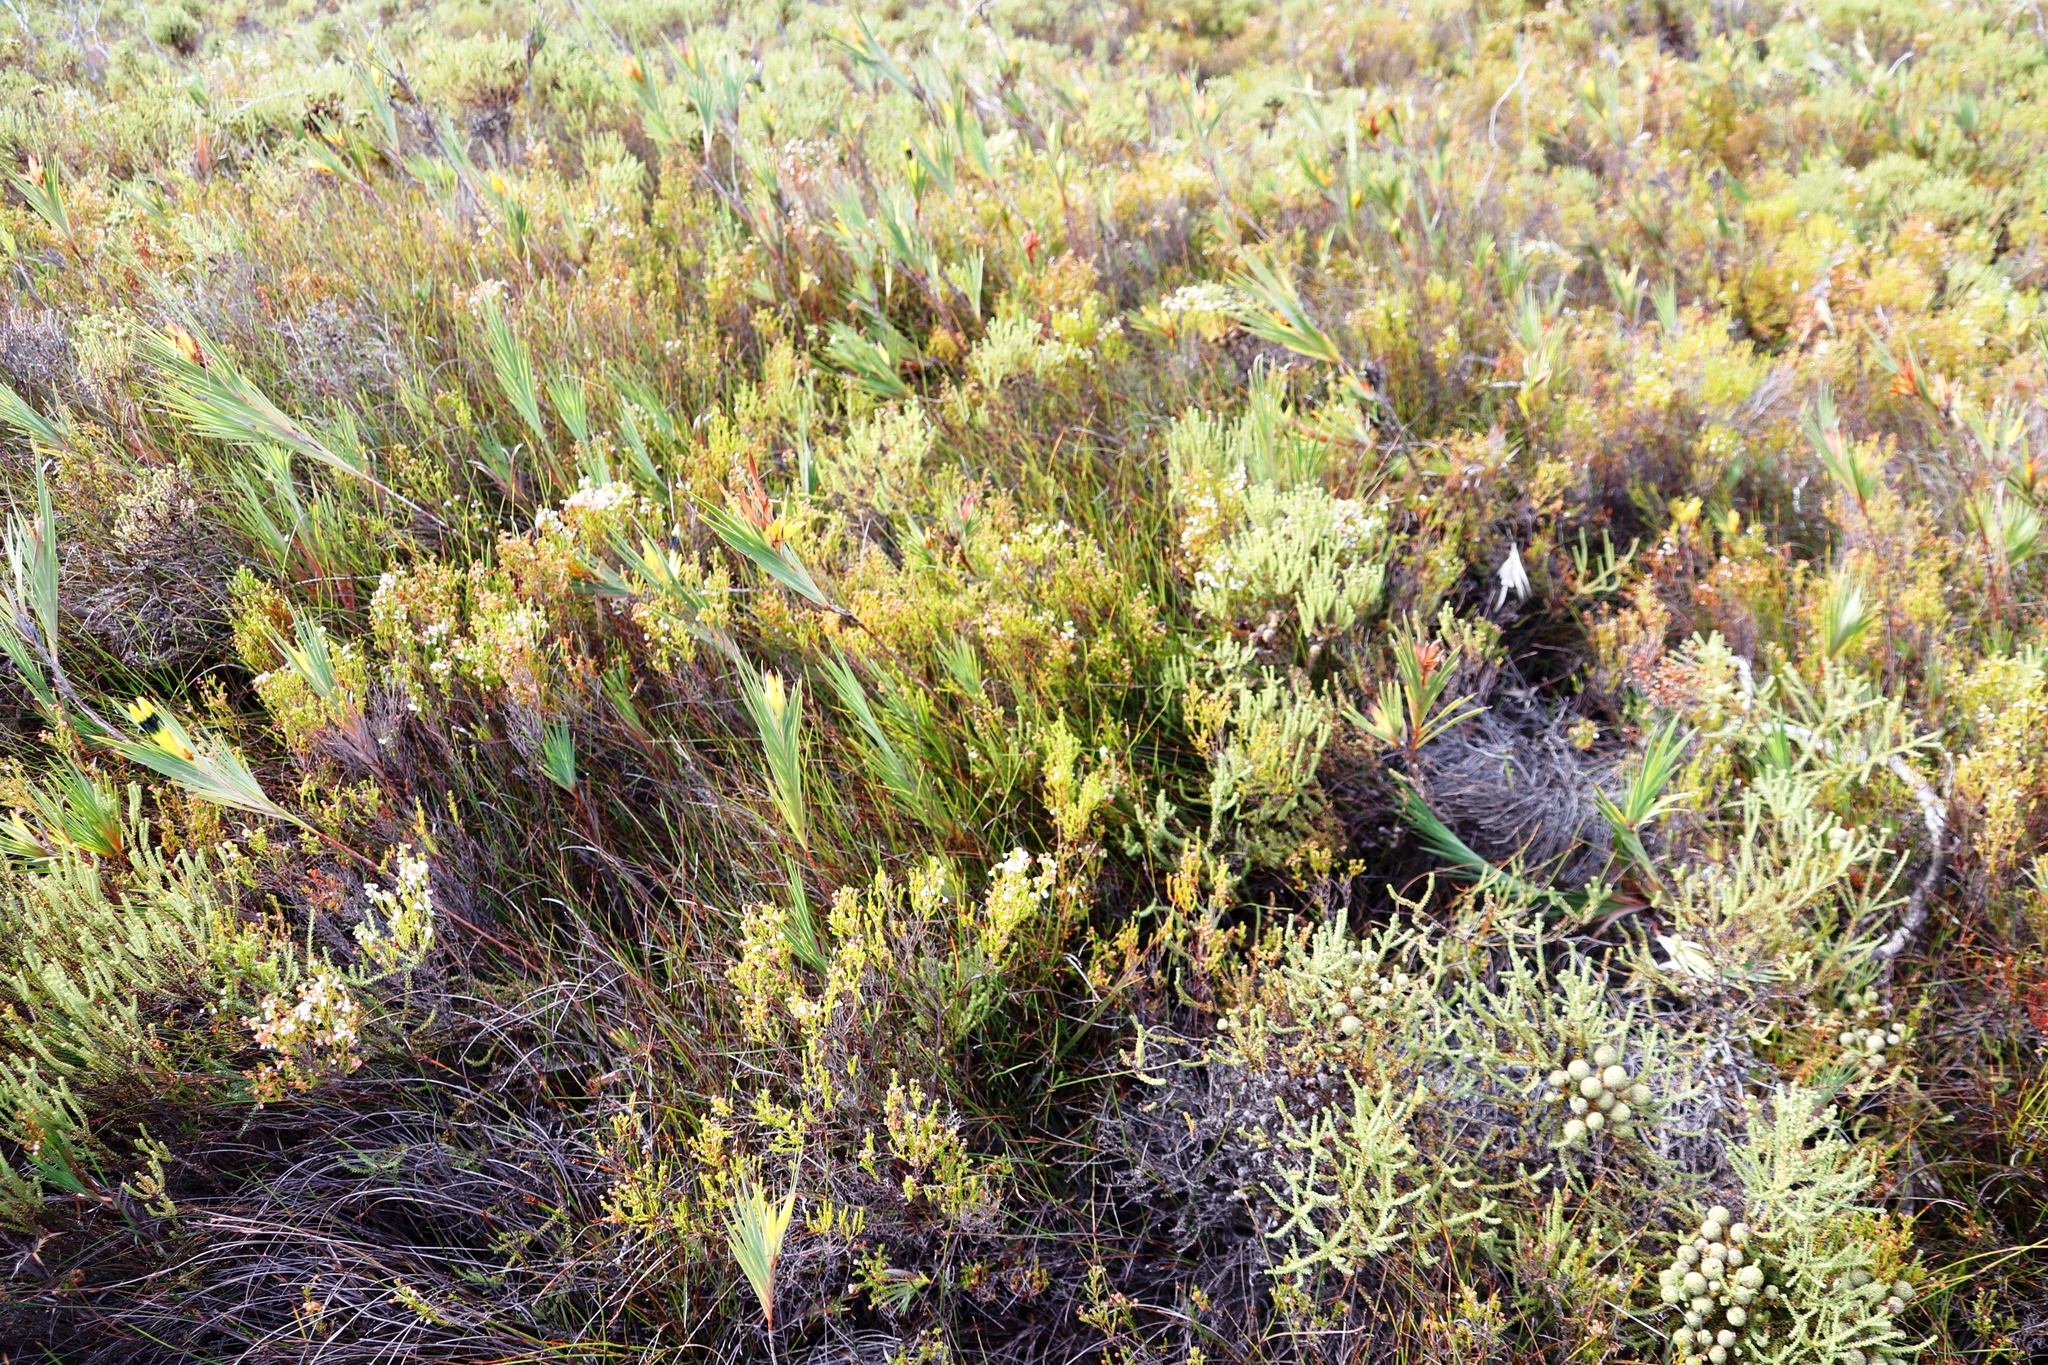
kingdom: Plantae
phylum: Tracheophyta
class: Magnoliopsida
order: Ericales
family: Ericaceae
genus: Erica
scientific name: Erica subdivaricata
